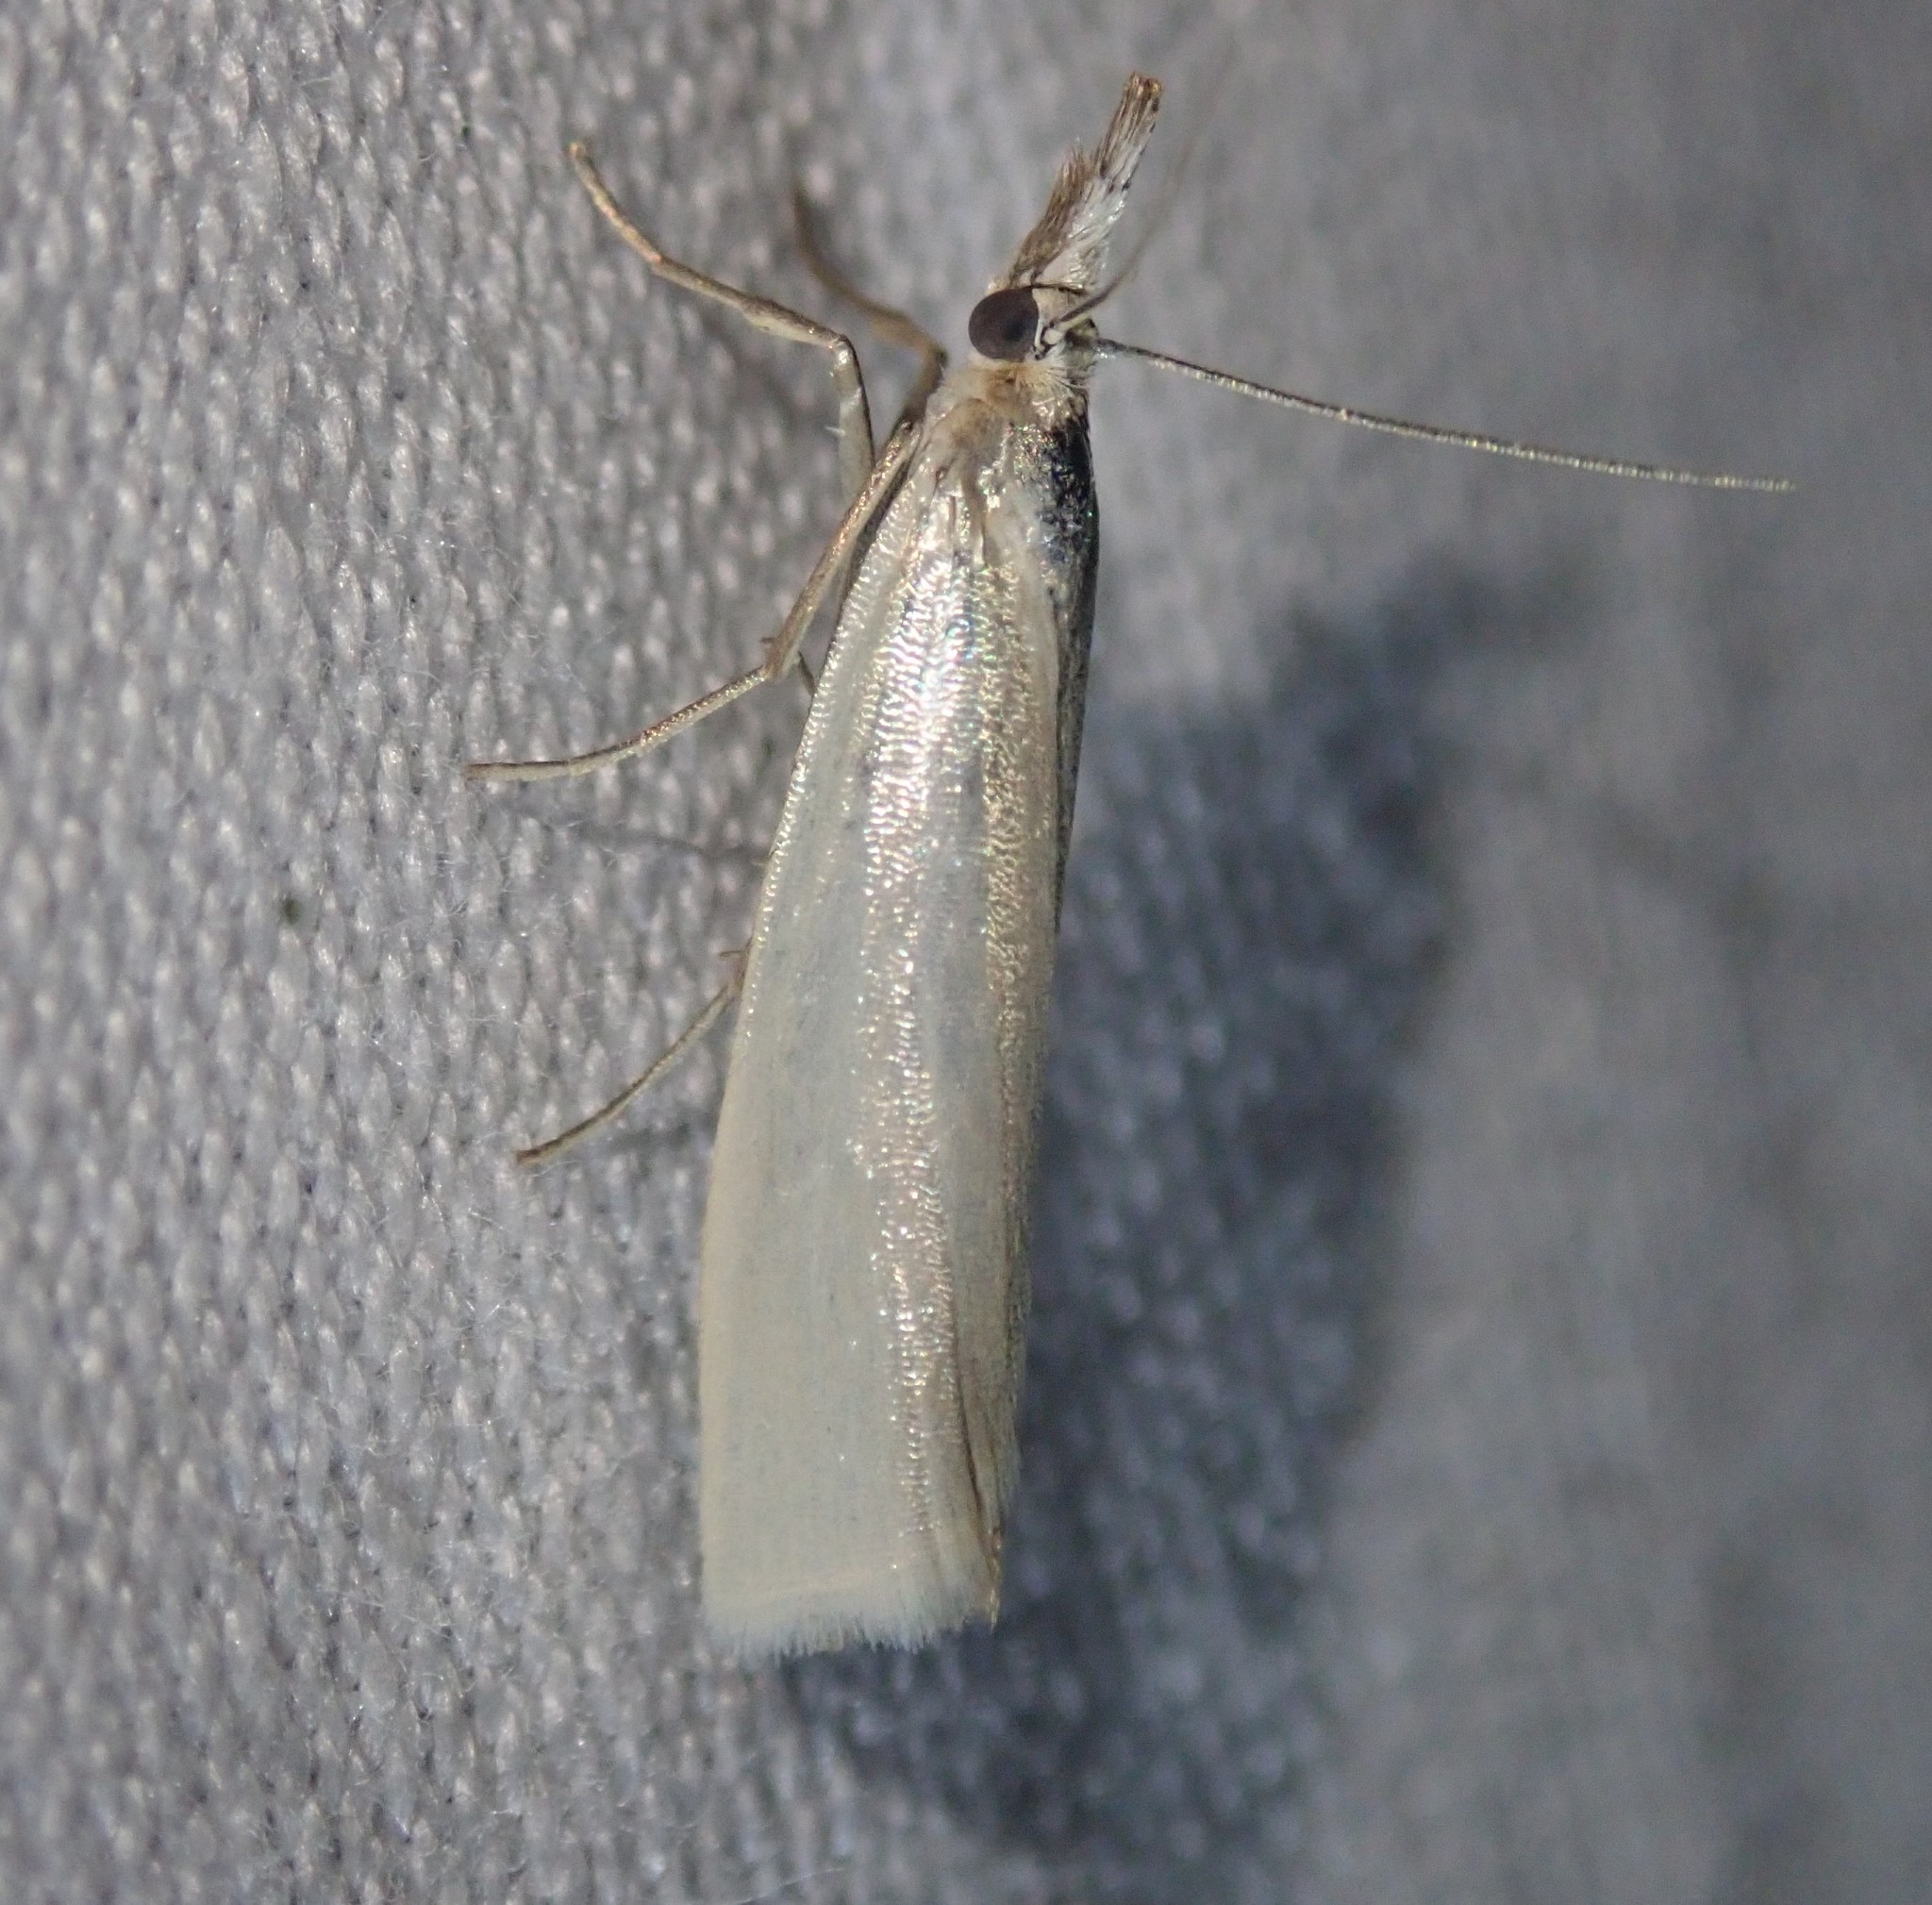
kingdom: Animalia
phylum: Arthropoda
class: Insecta
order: Lepidoptera
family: Crambidae
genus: Crambus
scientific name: Crambus perlellus
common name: Yellow satin veneer
